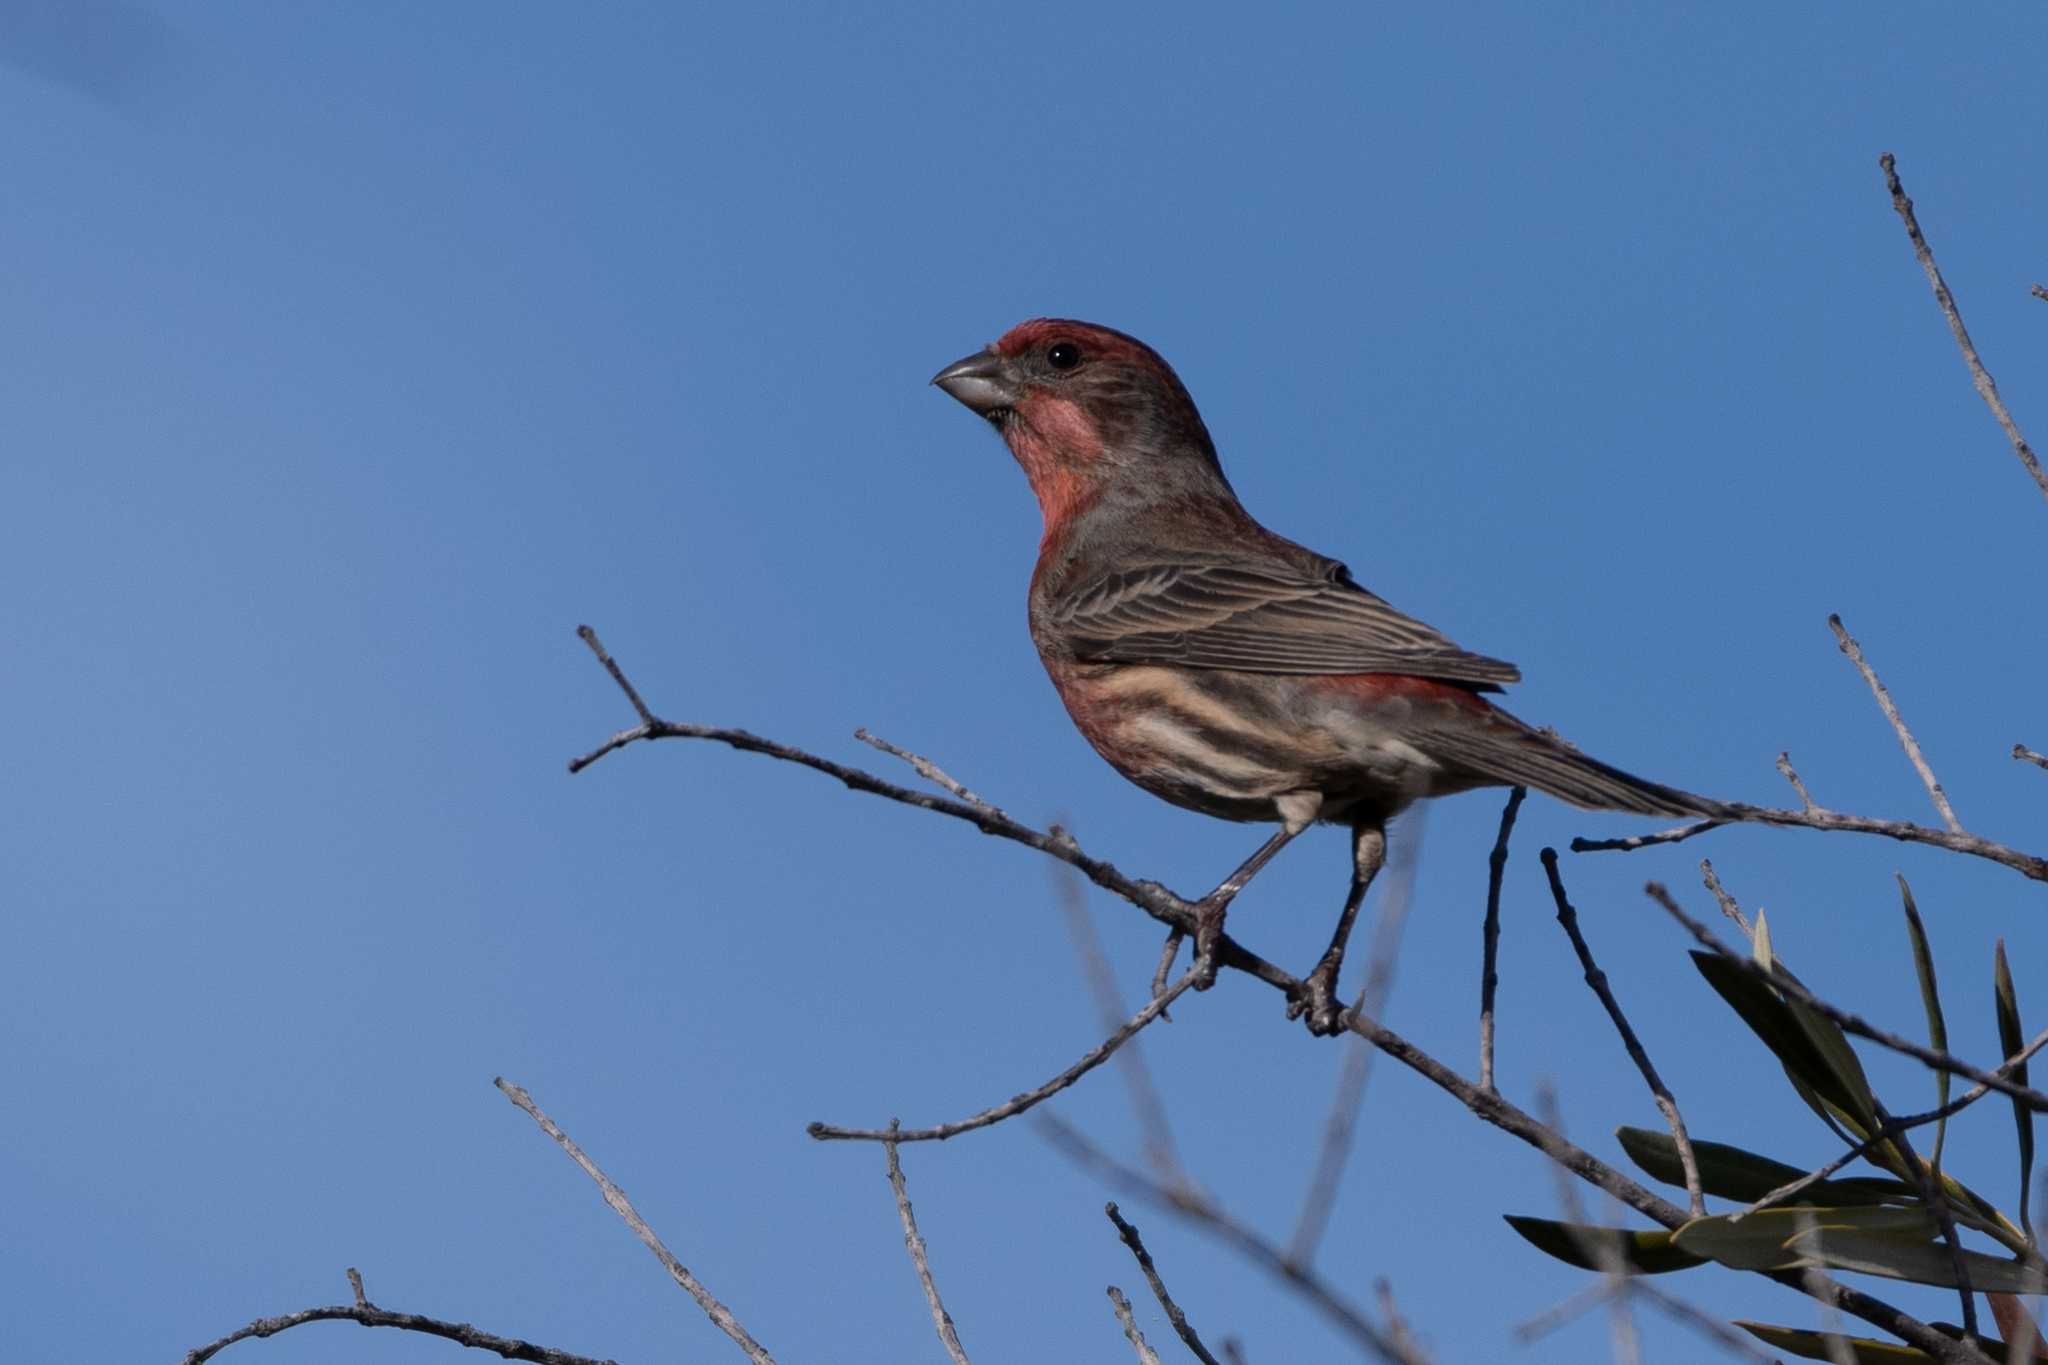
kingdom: Animalia
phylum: Chordata
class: Aves
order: Passeriformes
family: Fringillidae
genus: Haemorhous
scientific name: Haemorhous mexicanus
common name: House finch
